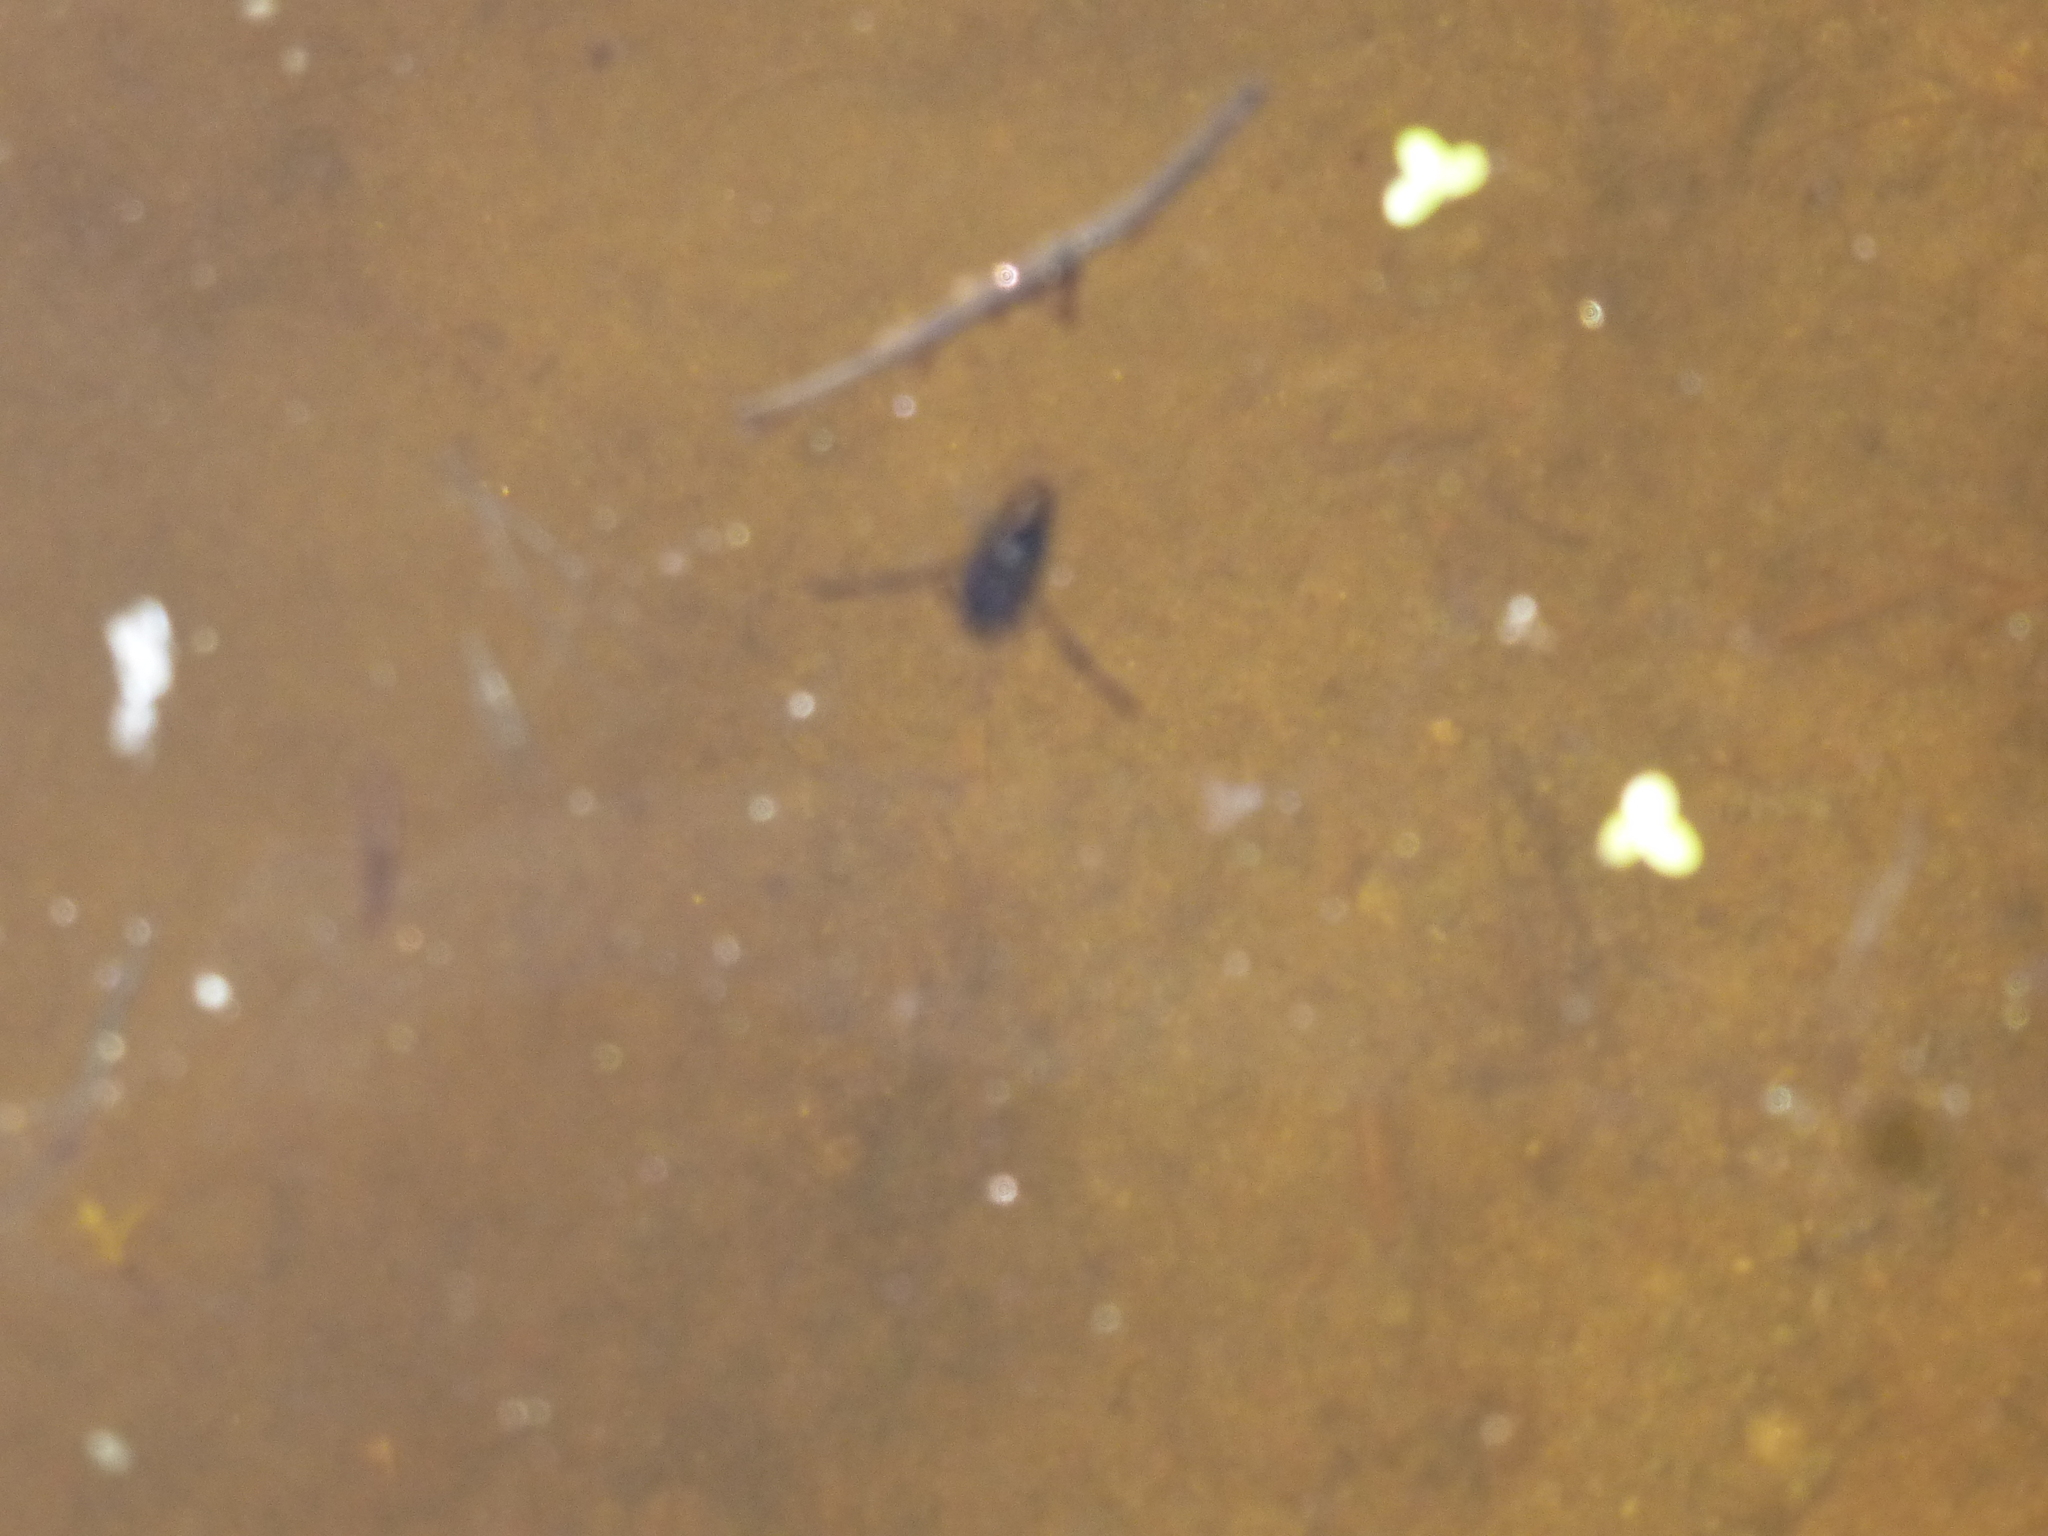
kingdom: Animalia
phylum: Arthropoda
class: Insecta
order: Hemiptera
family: Notonectidae
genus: Notonecta
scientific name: Notonecta
